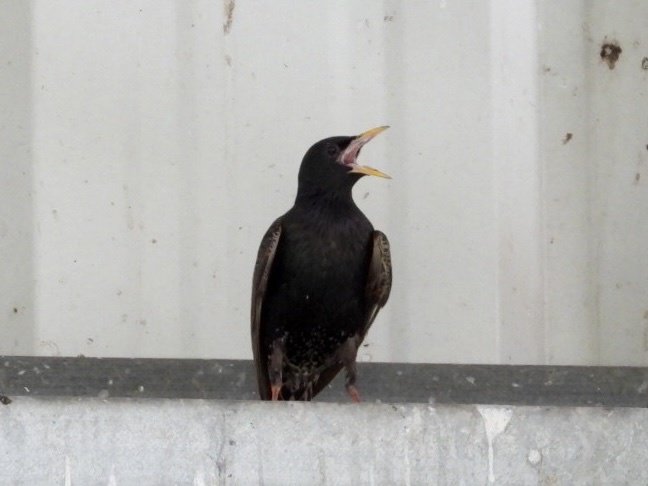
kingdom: Animalia
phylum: Chordata
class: Aves
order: Passeriformes
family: Sturnidae
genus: Sturnus
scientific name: Sturnus vulgaris
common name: Common starling
